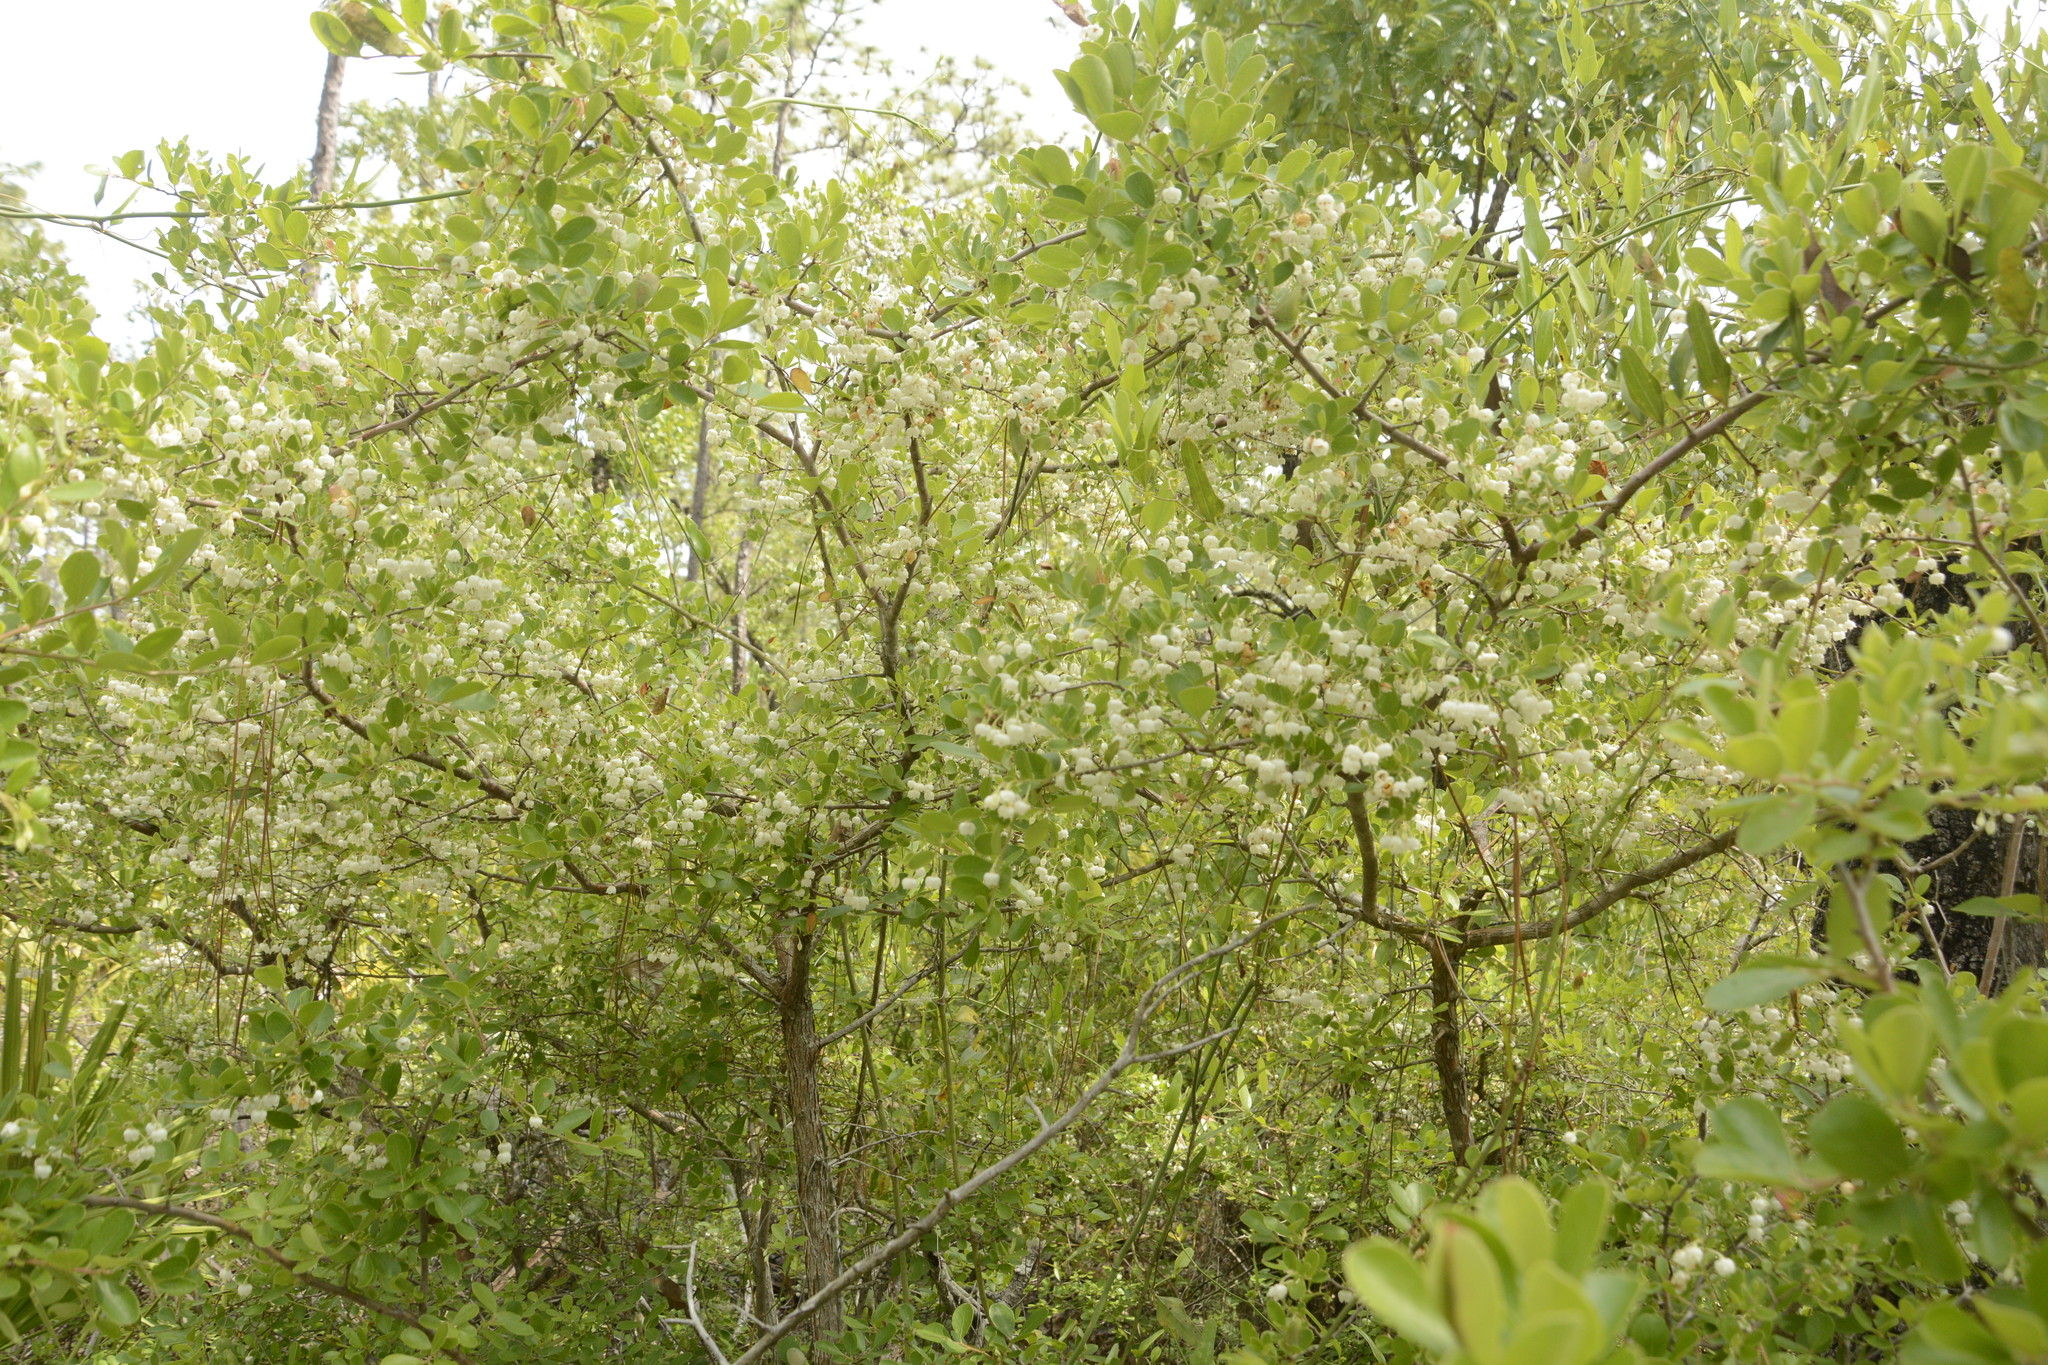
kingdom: Plantae
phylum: Tracheophyta
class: Magnoliopsida
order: Ericales
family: Ericaceae
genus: Vaccinium
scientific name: Vaccinium arboreum
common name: Farkleberry
